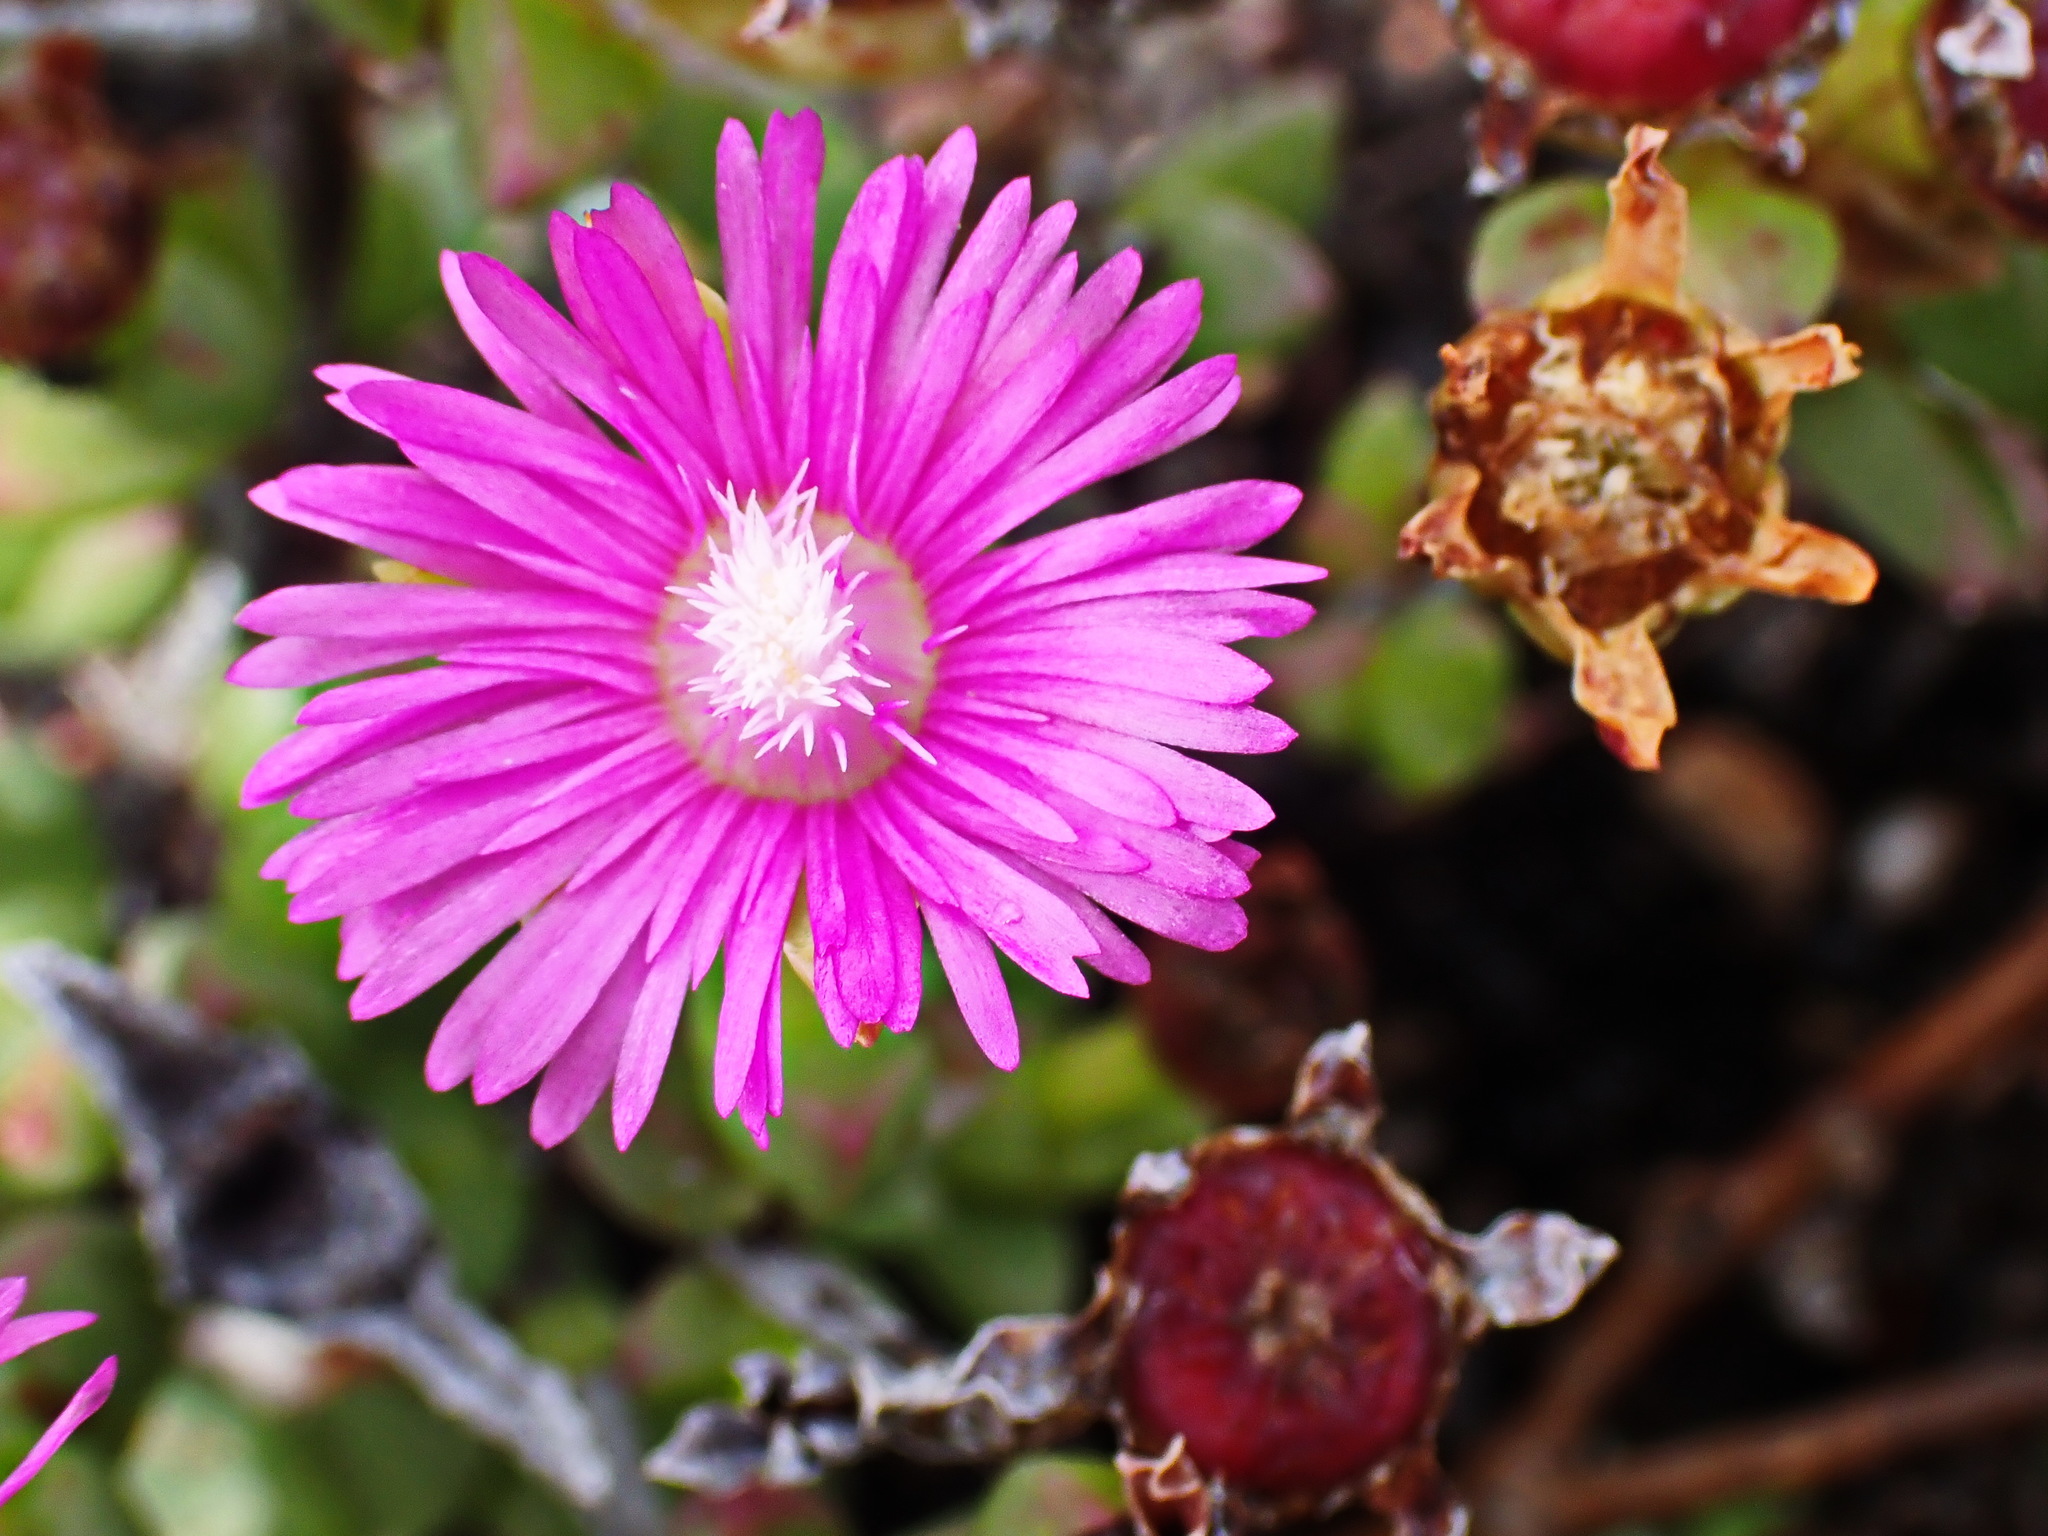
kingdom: Plantae
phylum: Tracheophyta
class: Magnoliopsida
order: Caryophyllales
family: Aizoaceae
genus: Esterhuysenia
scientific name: Esterhuysenia knysnana
